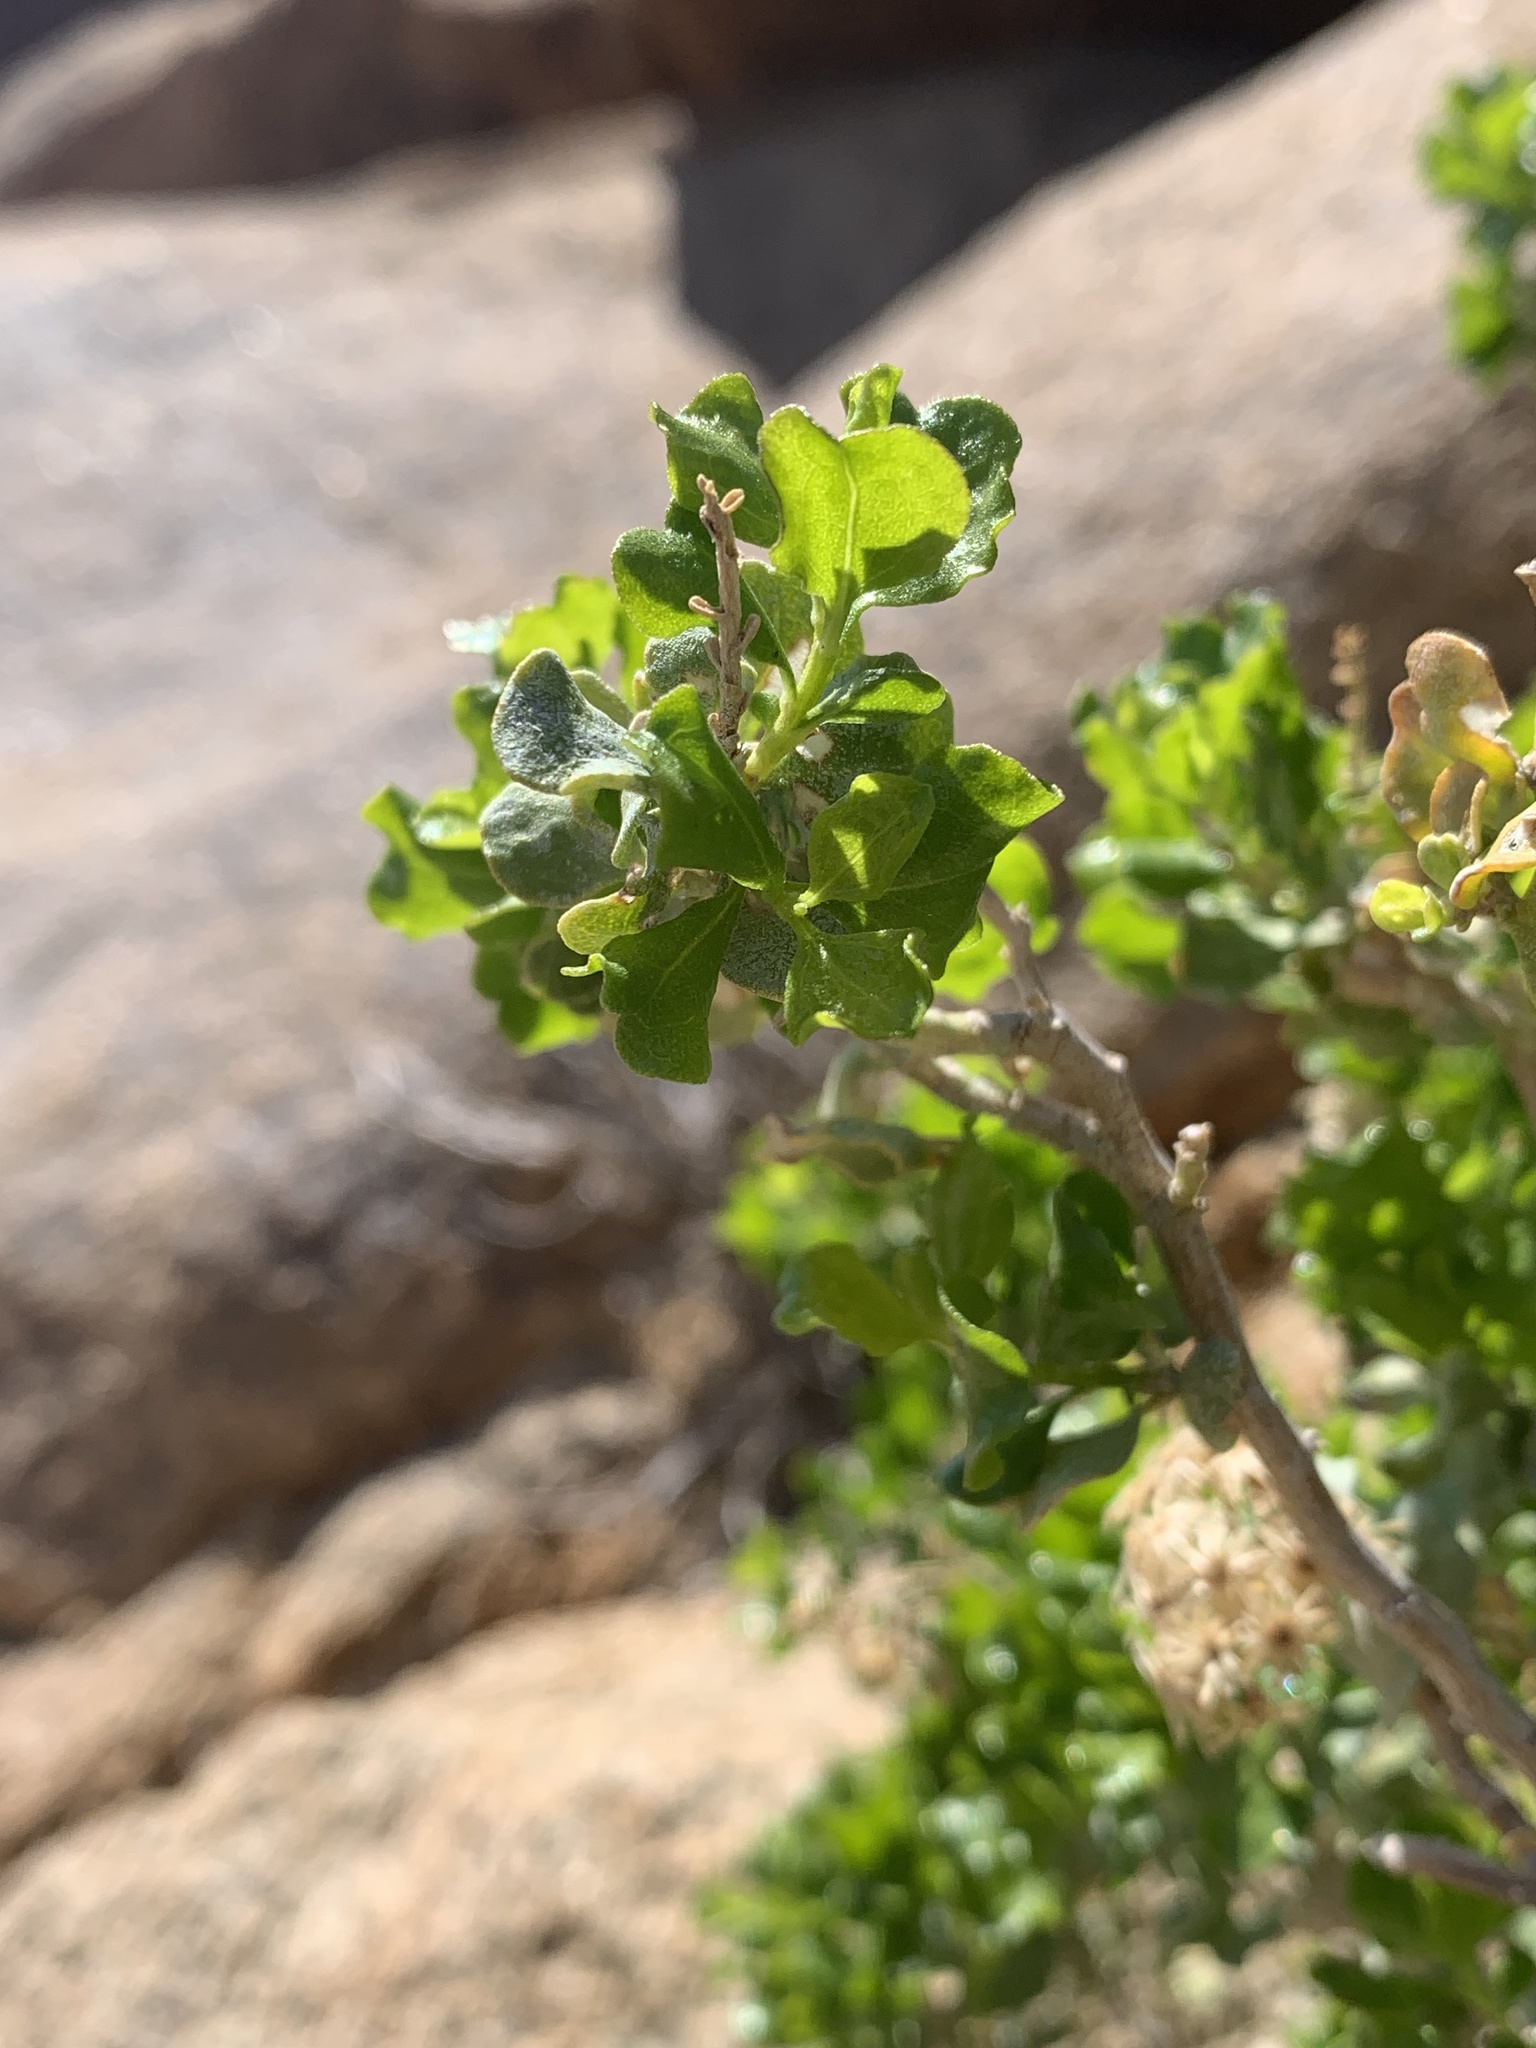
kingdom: Plantae
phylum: Tracheophyta
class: Magnoliopsida
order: Asterales
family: Asteraceae
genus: Ericameria
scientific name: Ericameria cuneata
